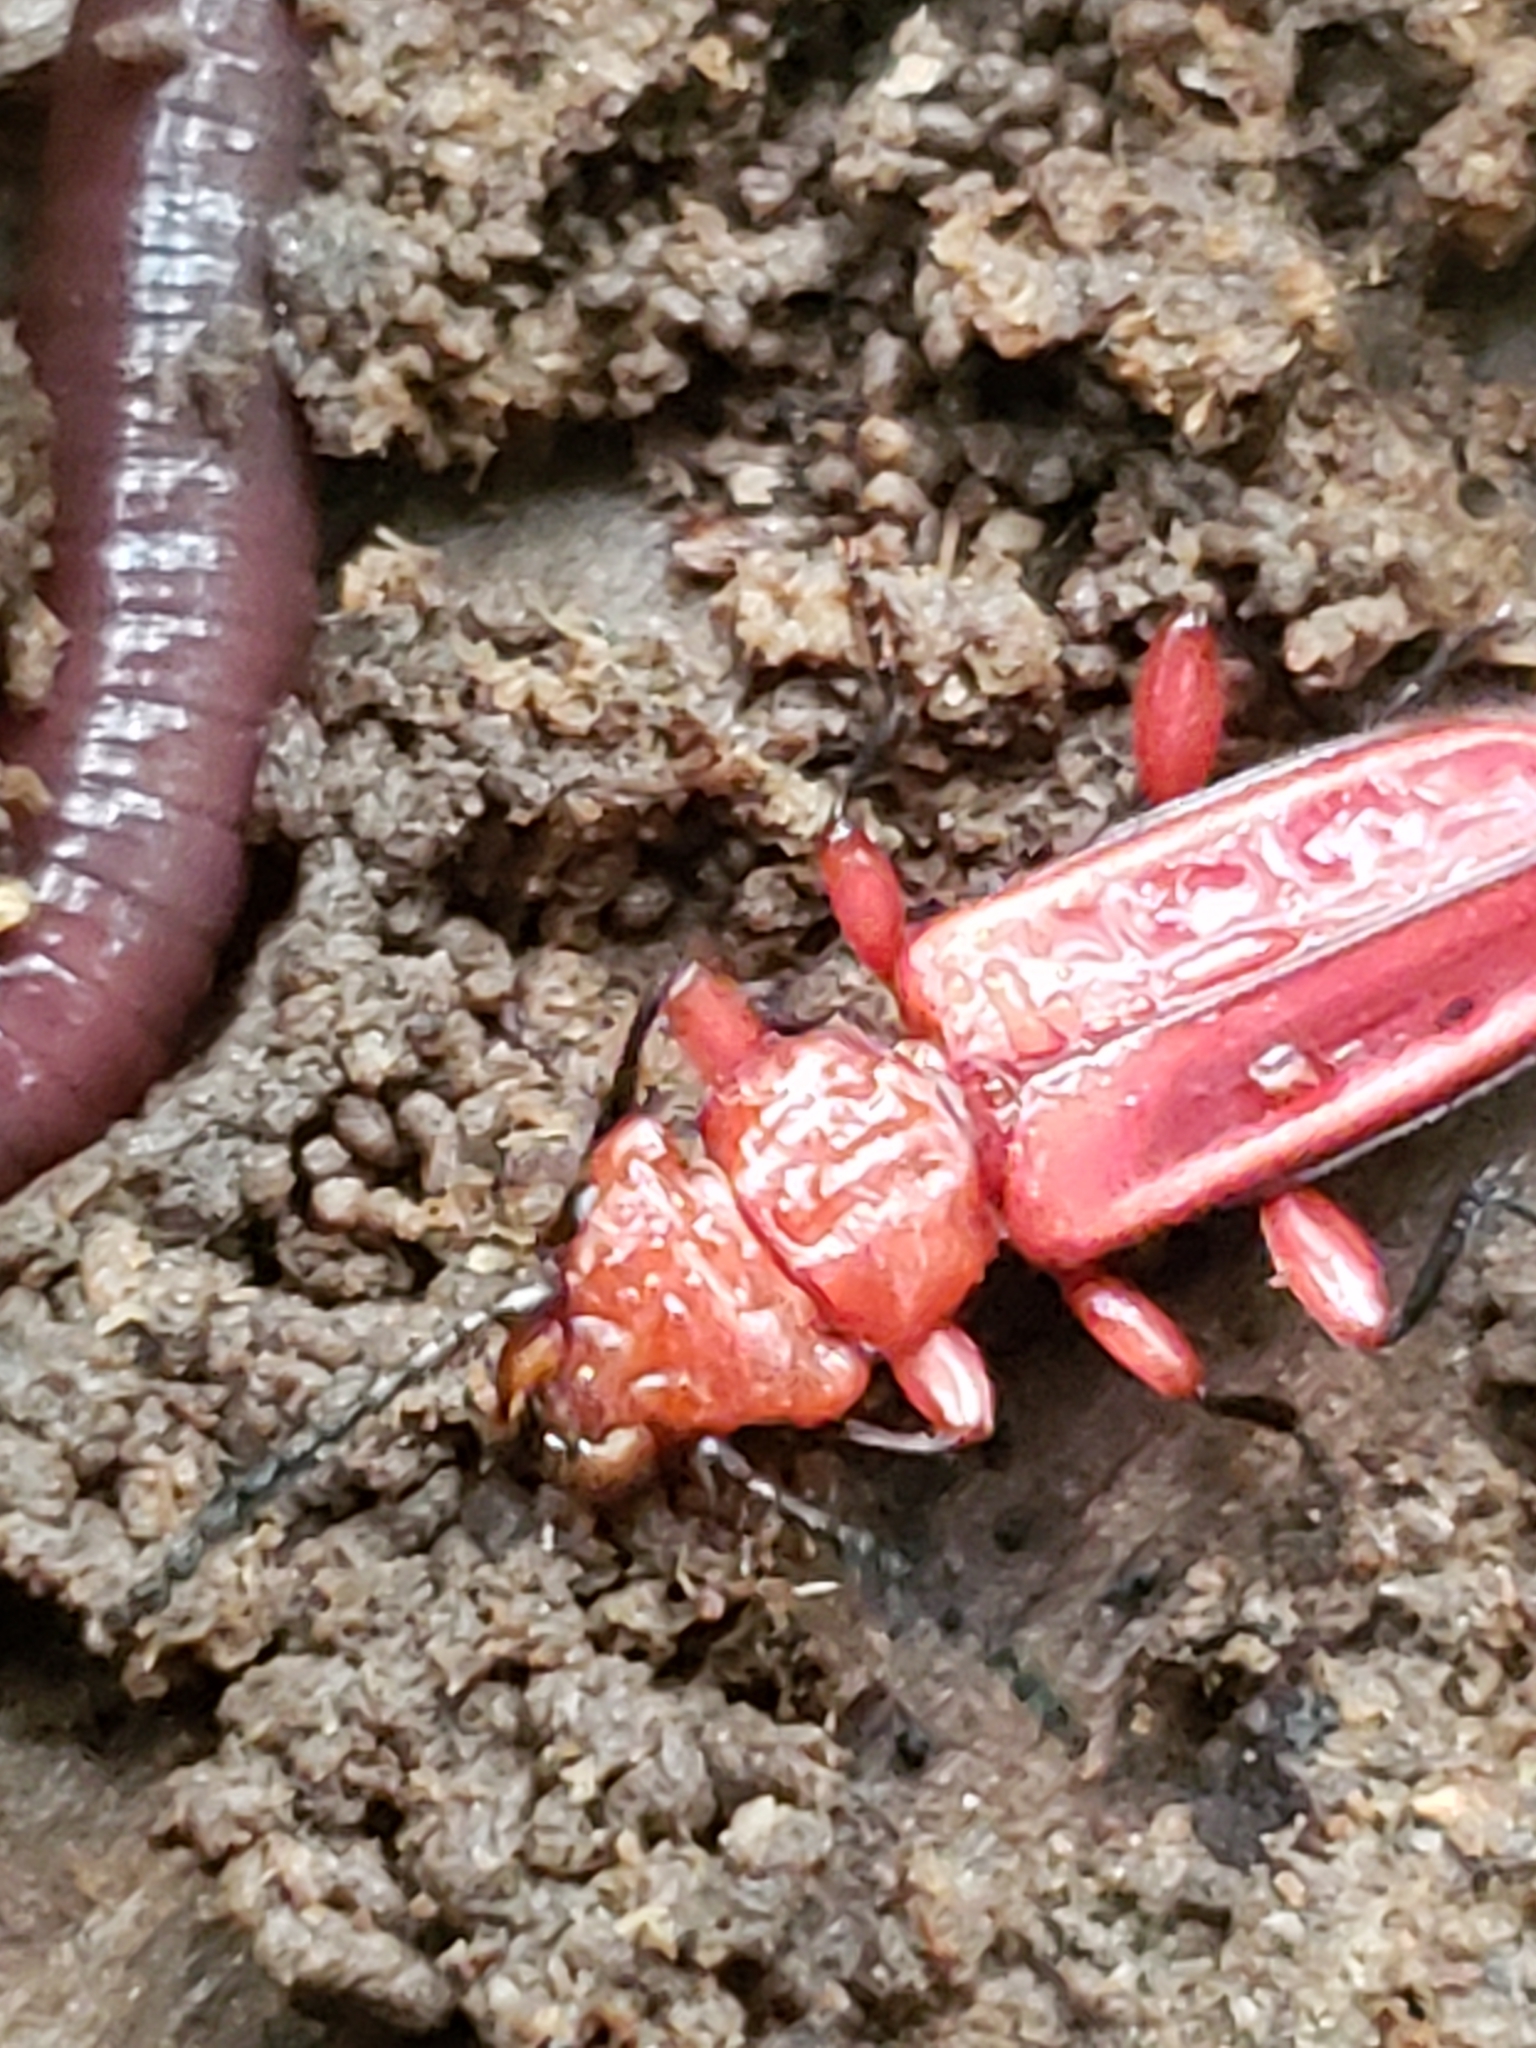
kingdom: Animalia
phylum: Arthropoda
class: Insecta
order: Coleoptera
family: Cucujidae
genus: Cucujus
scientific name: Cucujus clavipes
